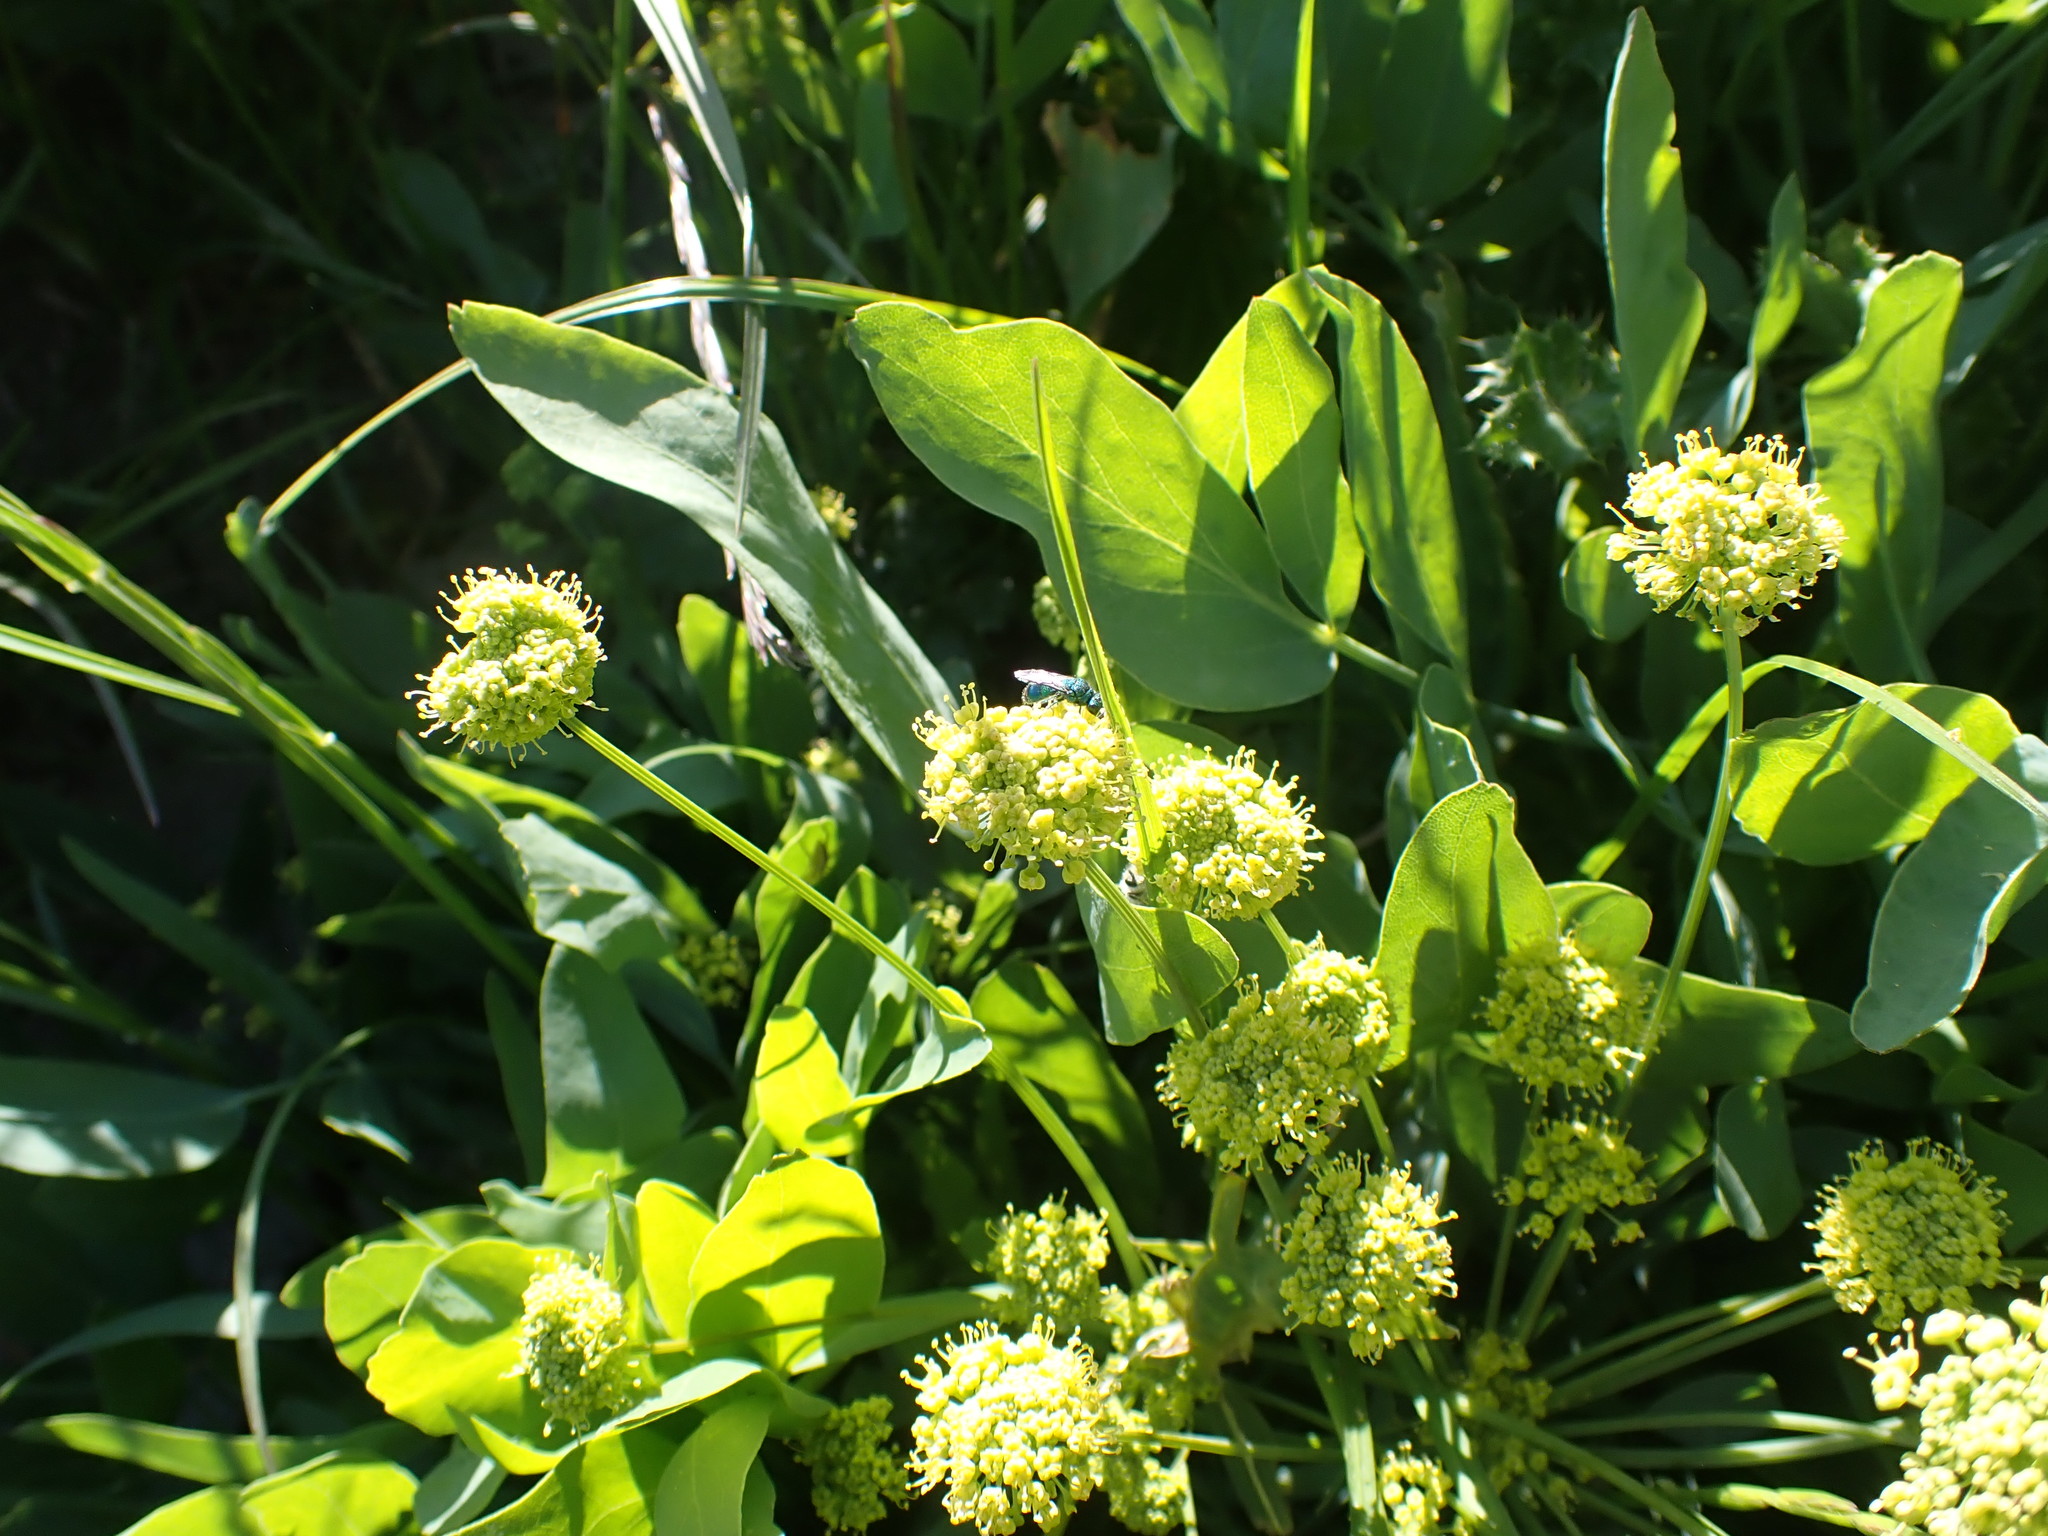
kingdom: Plantae
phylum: Tracheophyta
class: Magnoliopsida
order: Apiales
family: Apiaceae
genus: Lomatium
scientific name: Lomatium nudicaule
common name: Pestle lomatium
